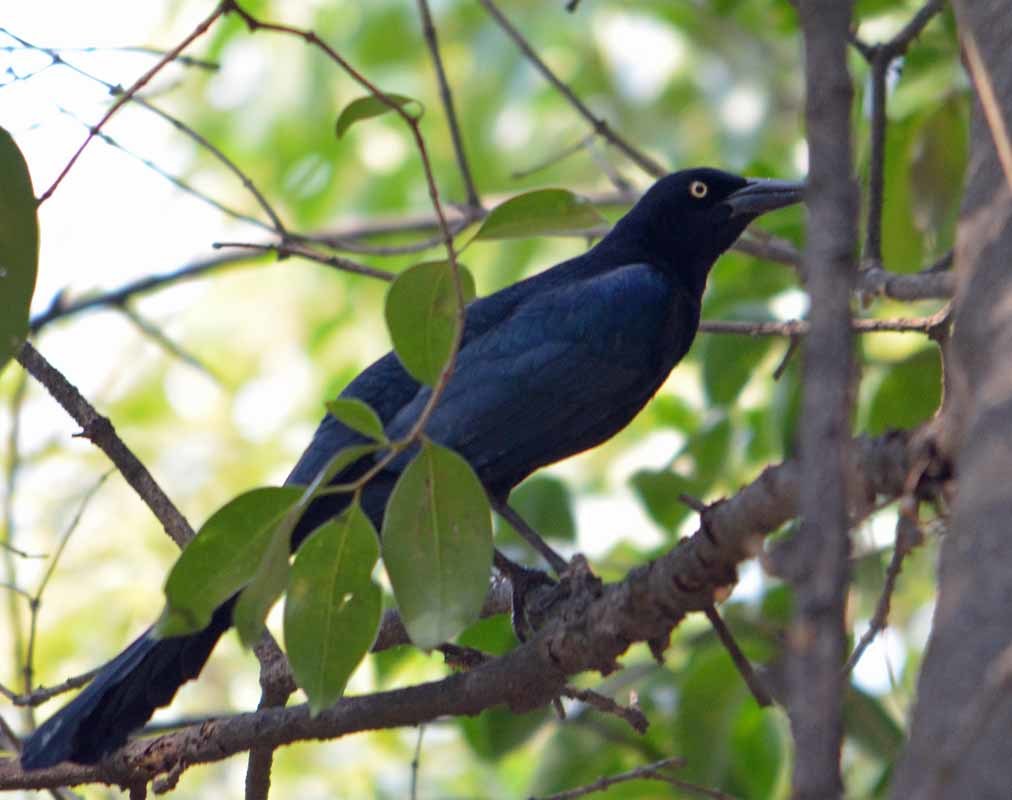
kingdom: Animalia
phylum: Chordata
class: Aves
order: Passeriformes
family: Icteridae
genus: Quiscalus
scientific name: Quiscalus mexicanus
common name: Great-tailed grackle
